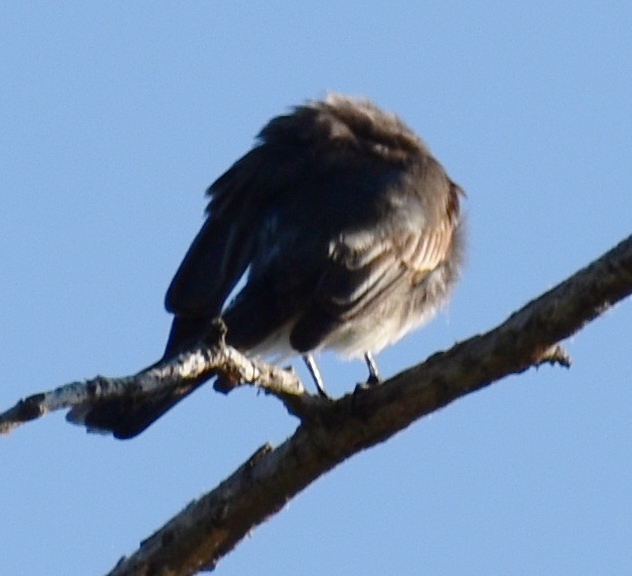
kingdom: Animalia
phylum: Chordata
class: Aves
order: Passeriformes
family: Tyrannidae
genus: Sayornis
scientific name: Sayornis nigricans
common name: Black phoebe
